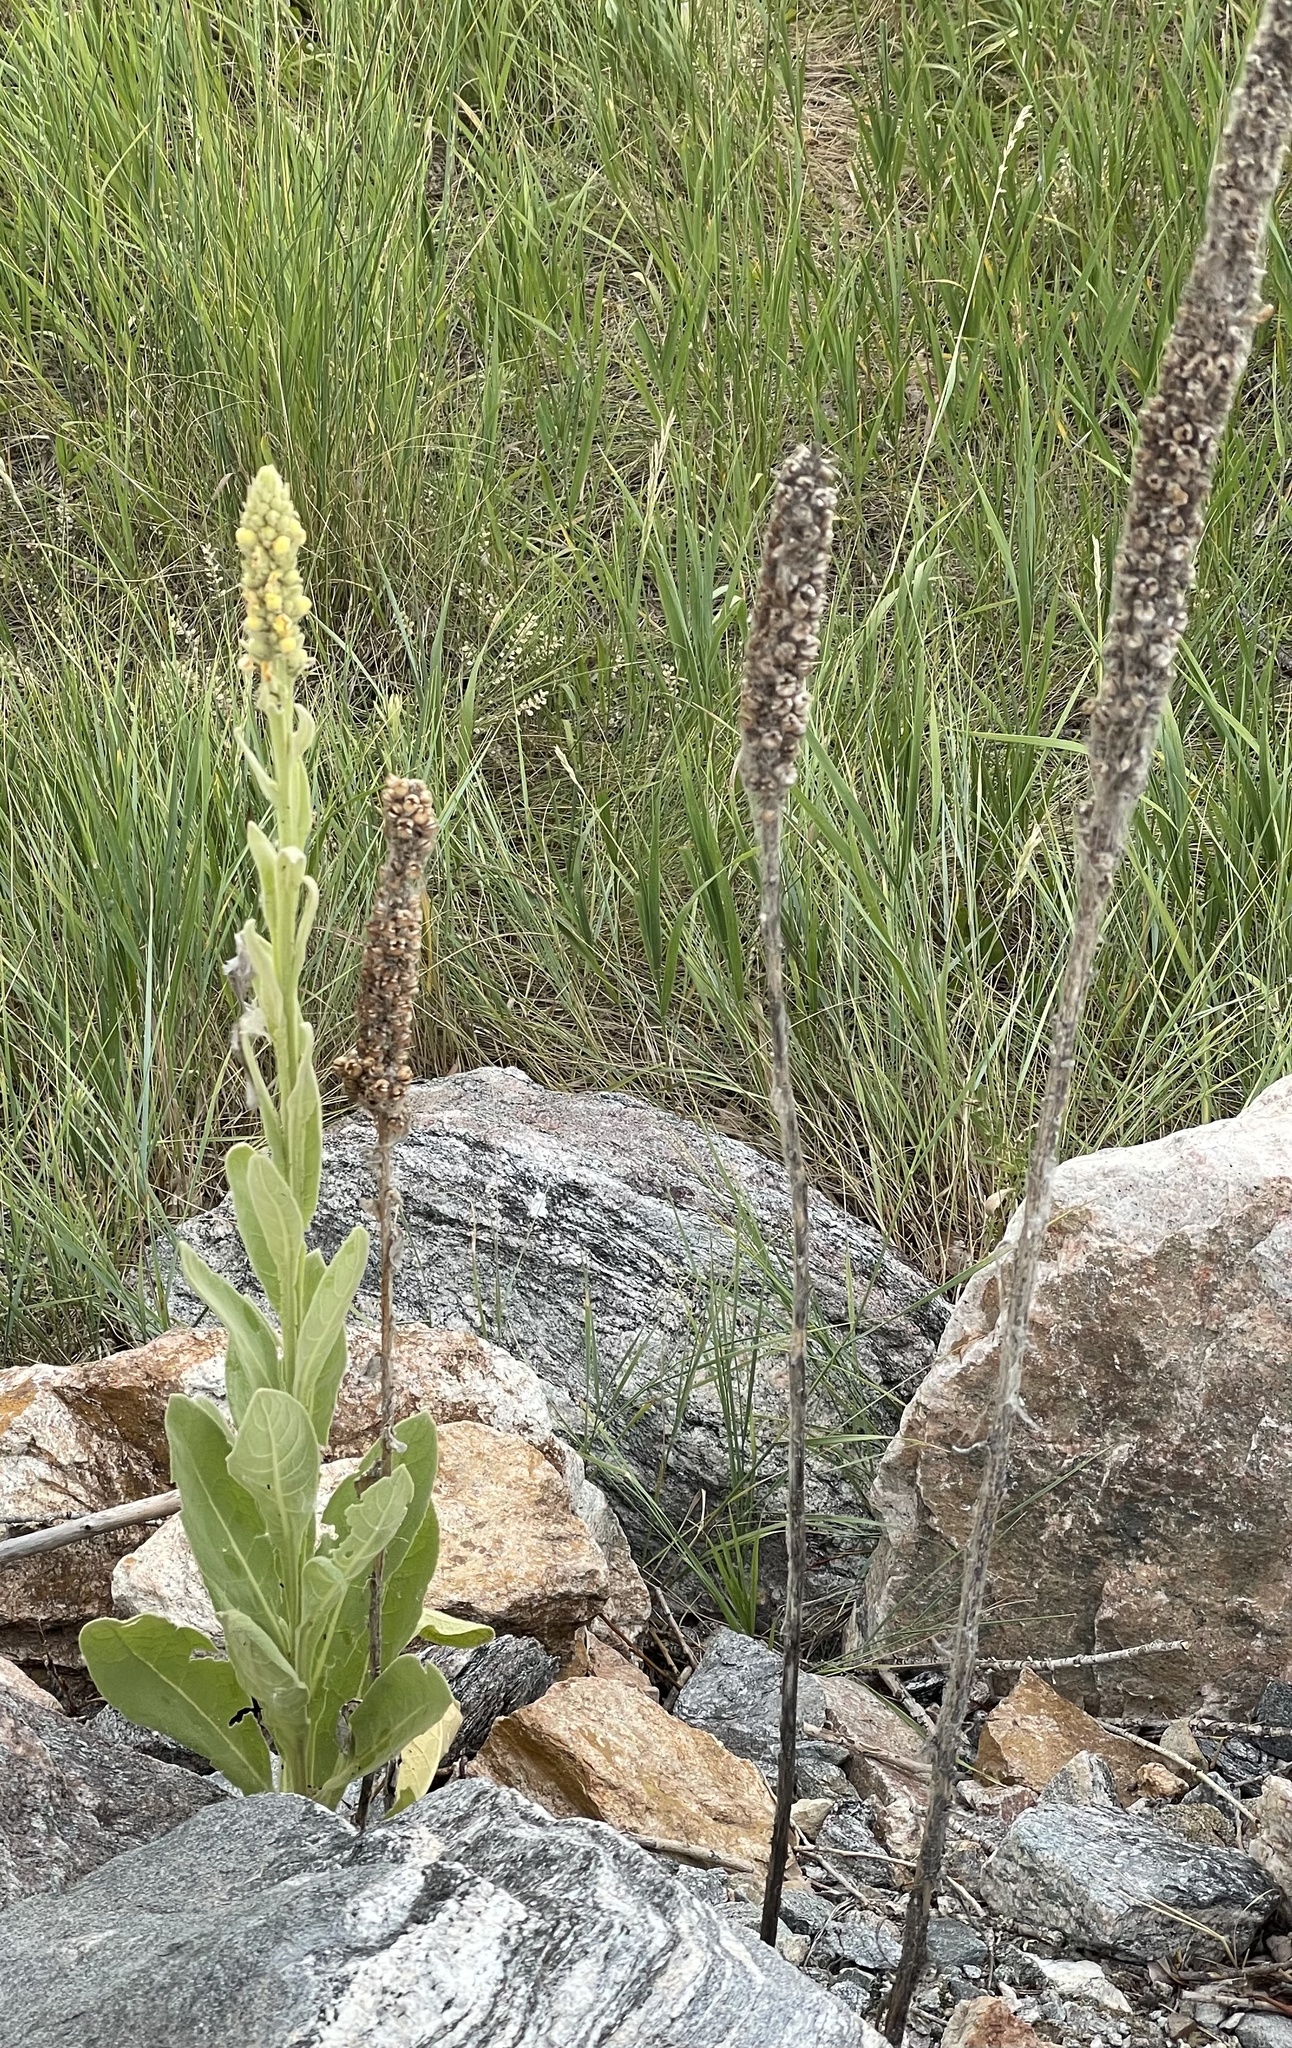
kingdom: Plantae
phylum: Tracheophyta
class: Magnoliopsida
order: Lamiales
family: Scrophulariaceae
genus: Verbascum
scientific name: Verbascum thapsus
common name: Common mullein
